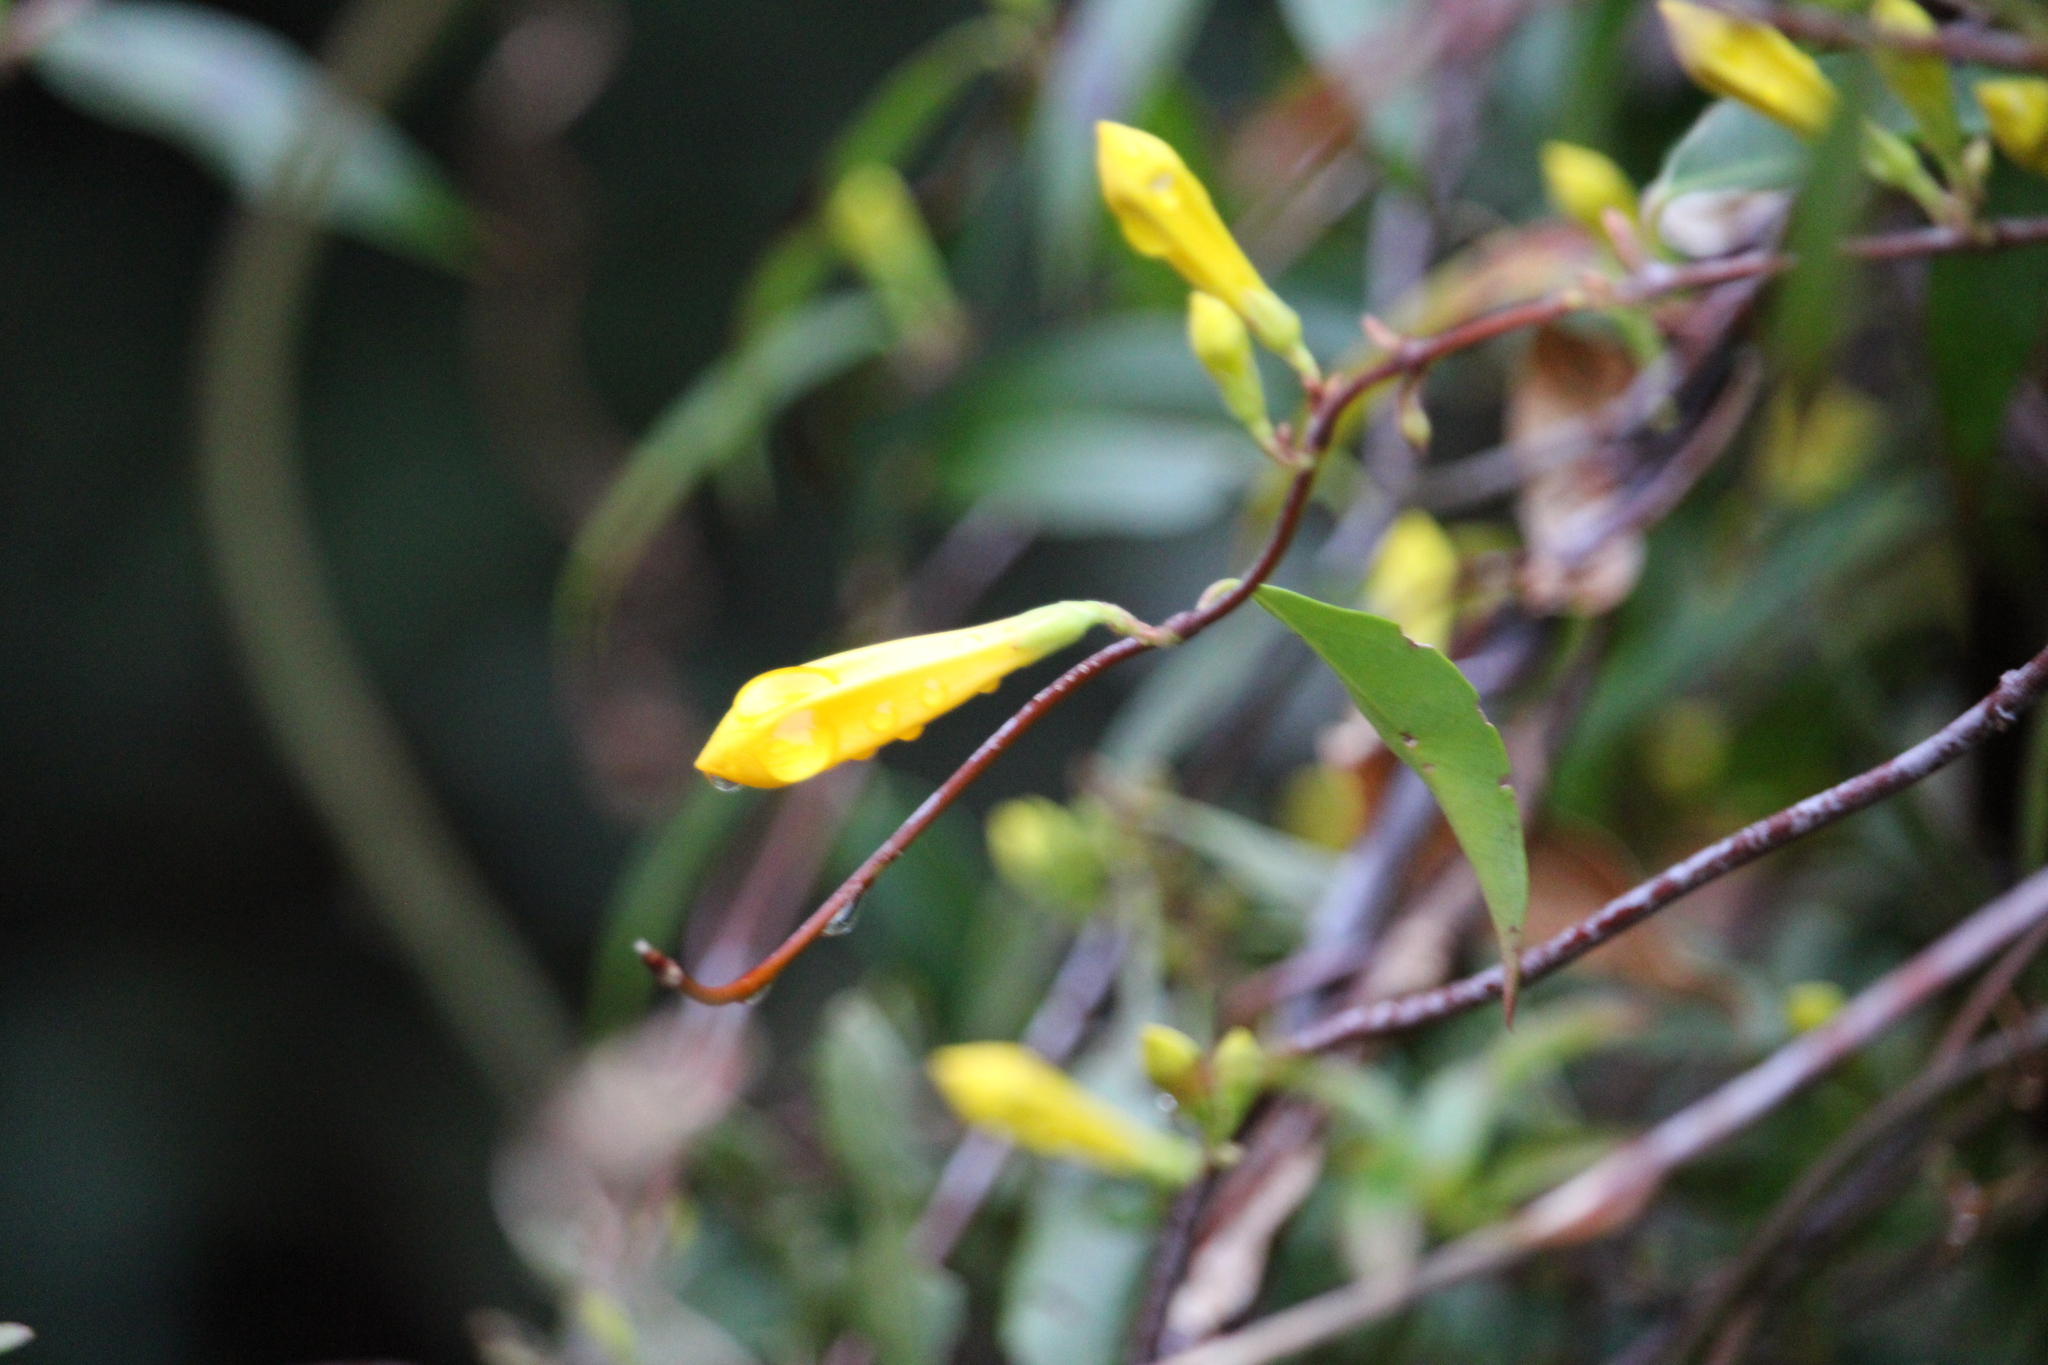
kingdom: Plantae
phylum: Tracheophyta
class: Magnoliopsida
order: Gentianales
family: Gelsemiaceae
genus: Gelsemium
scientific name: Gelsemium sempervirens
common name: Carolina-jasmine
